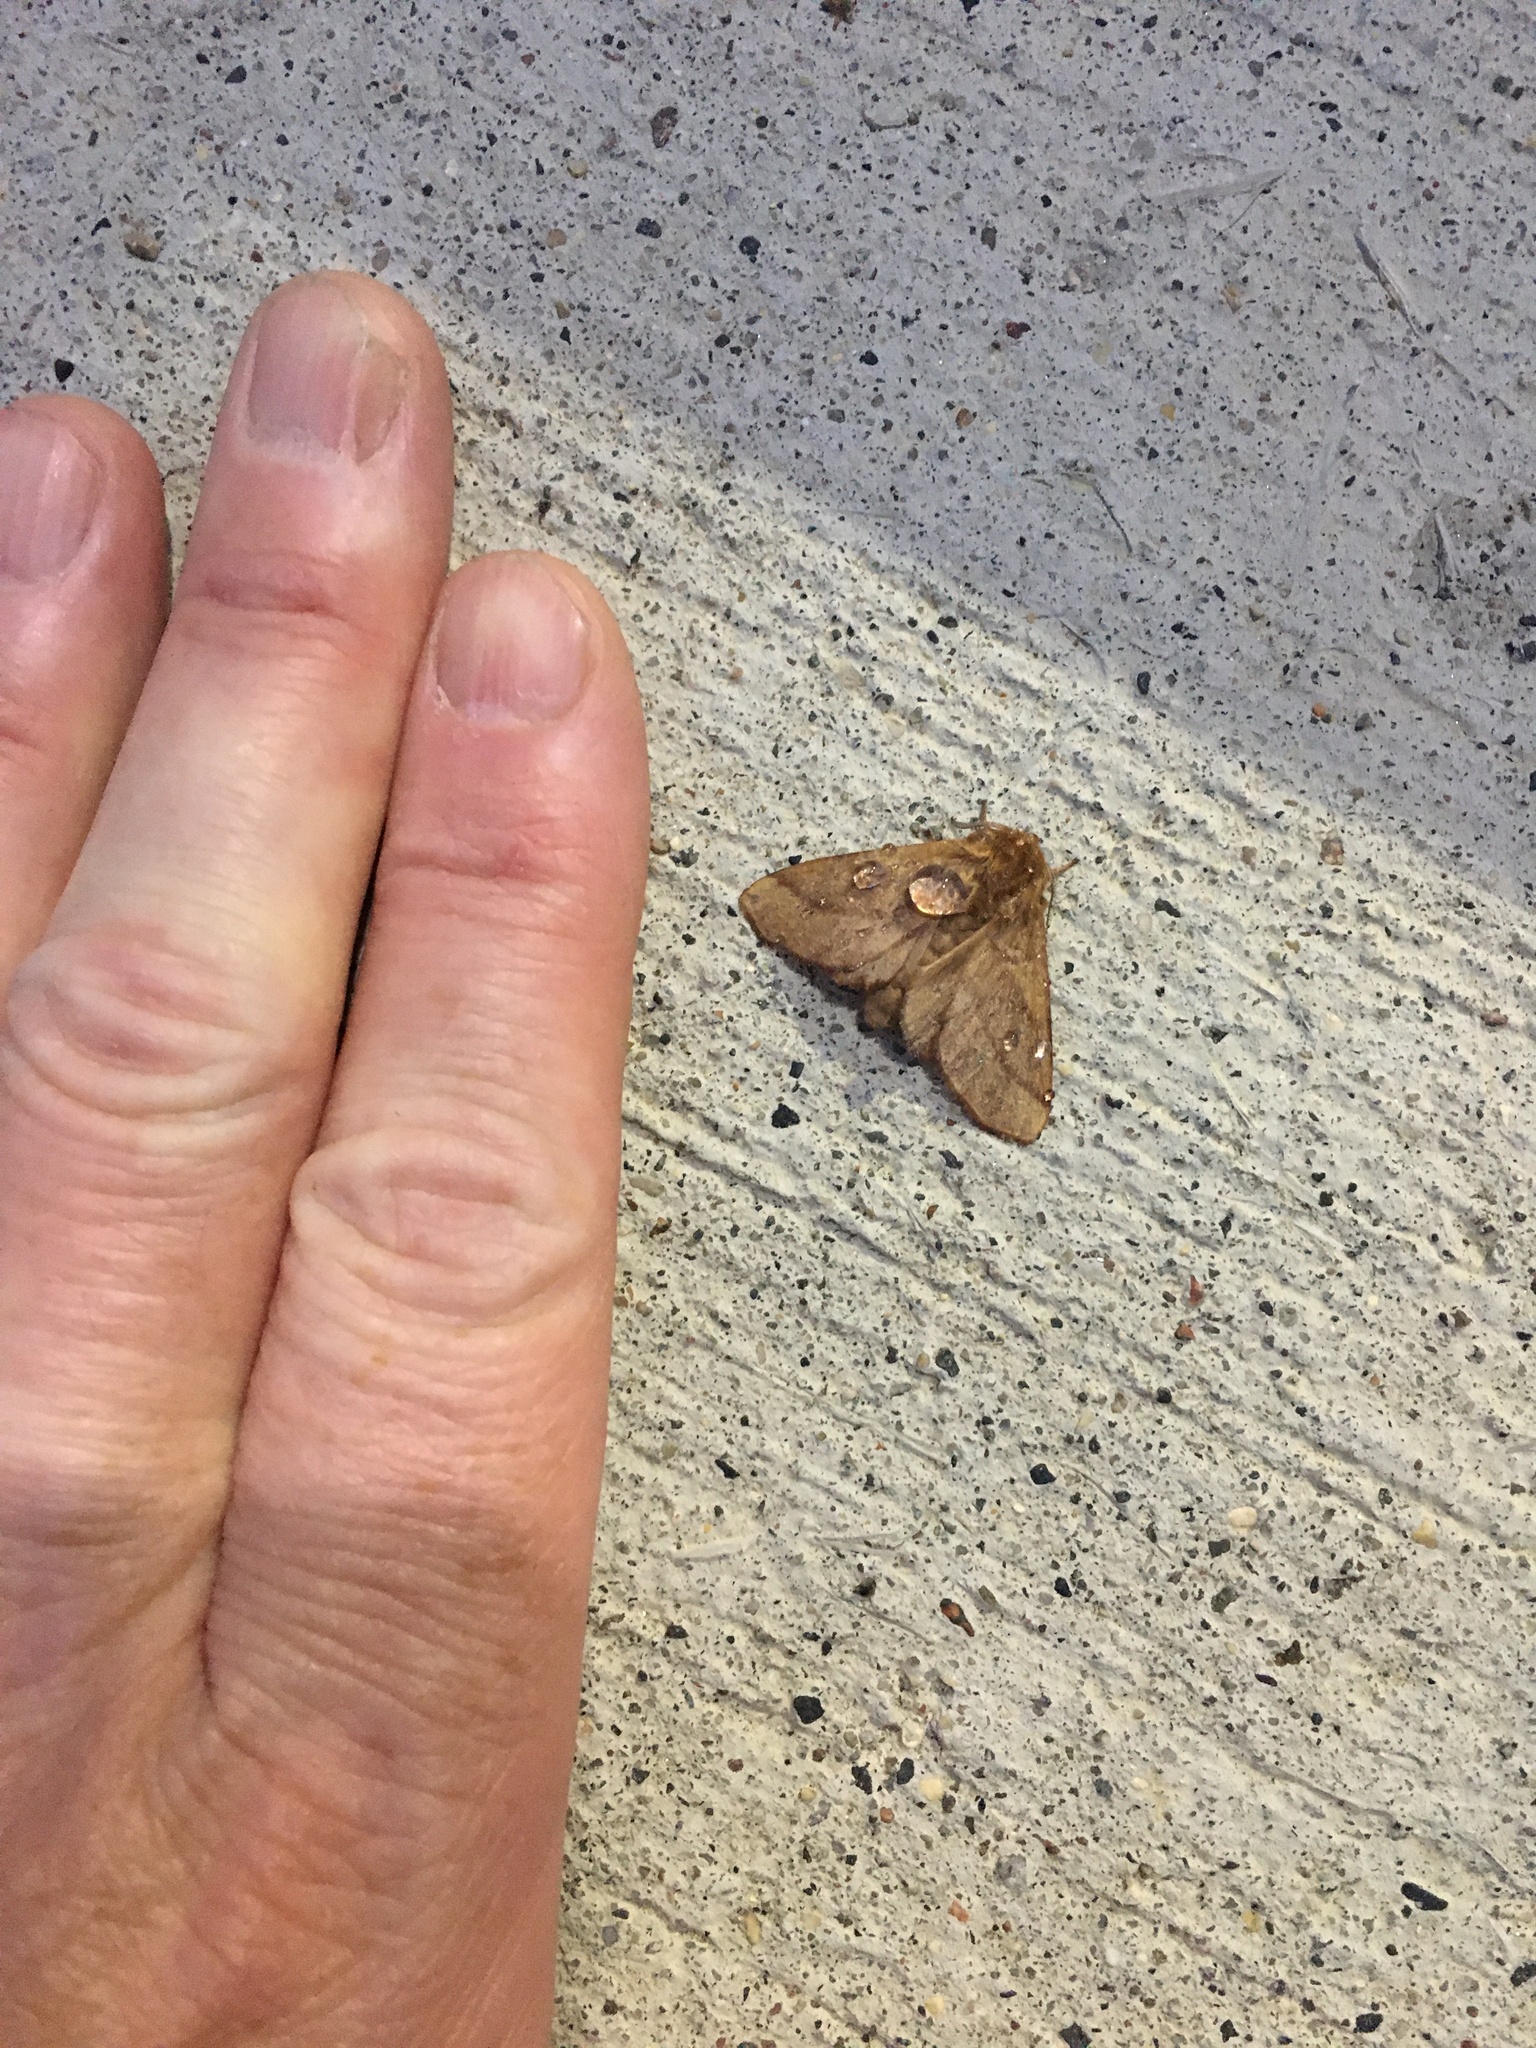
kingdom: Animalia
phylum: Arthropoda
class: Insecta
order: Lepidoptera
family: Lasiocampidae
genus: Malacosoma
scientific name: Malacosoma disstria
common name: Forest tent caterpillar
